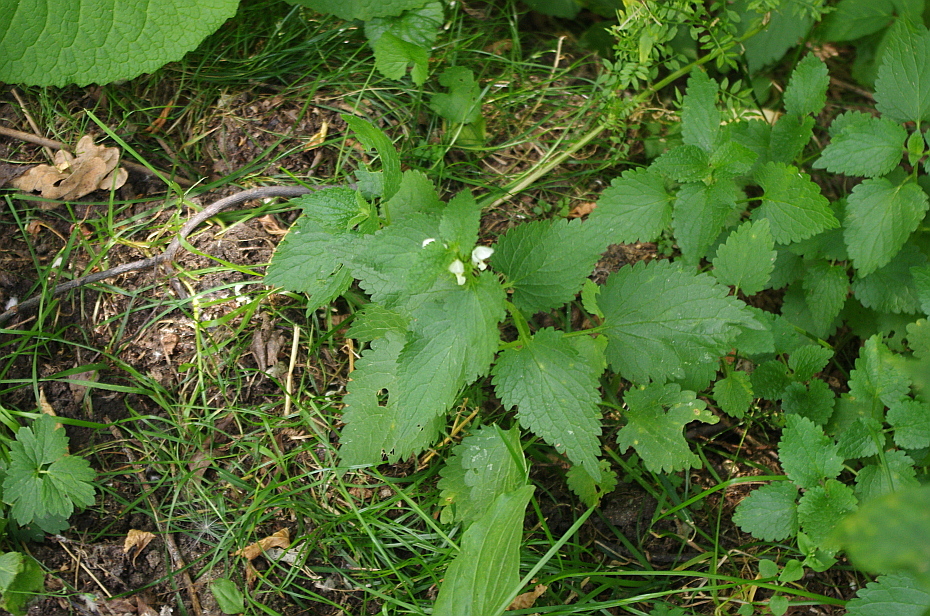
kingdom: Plantae
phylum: Tracheophyta
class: Magnoliopsida
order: Lamiales
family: Lamiaceae
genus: Lamium
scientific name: Lamium album
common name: White dead-nettle
